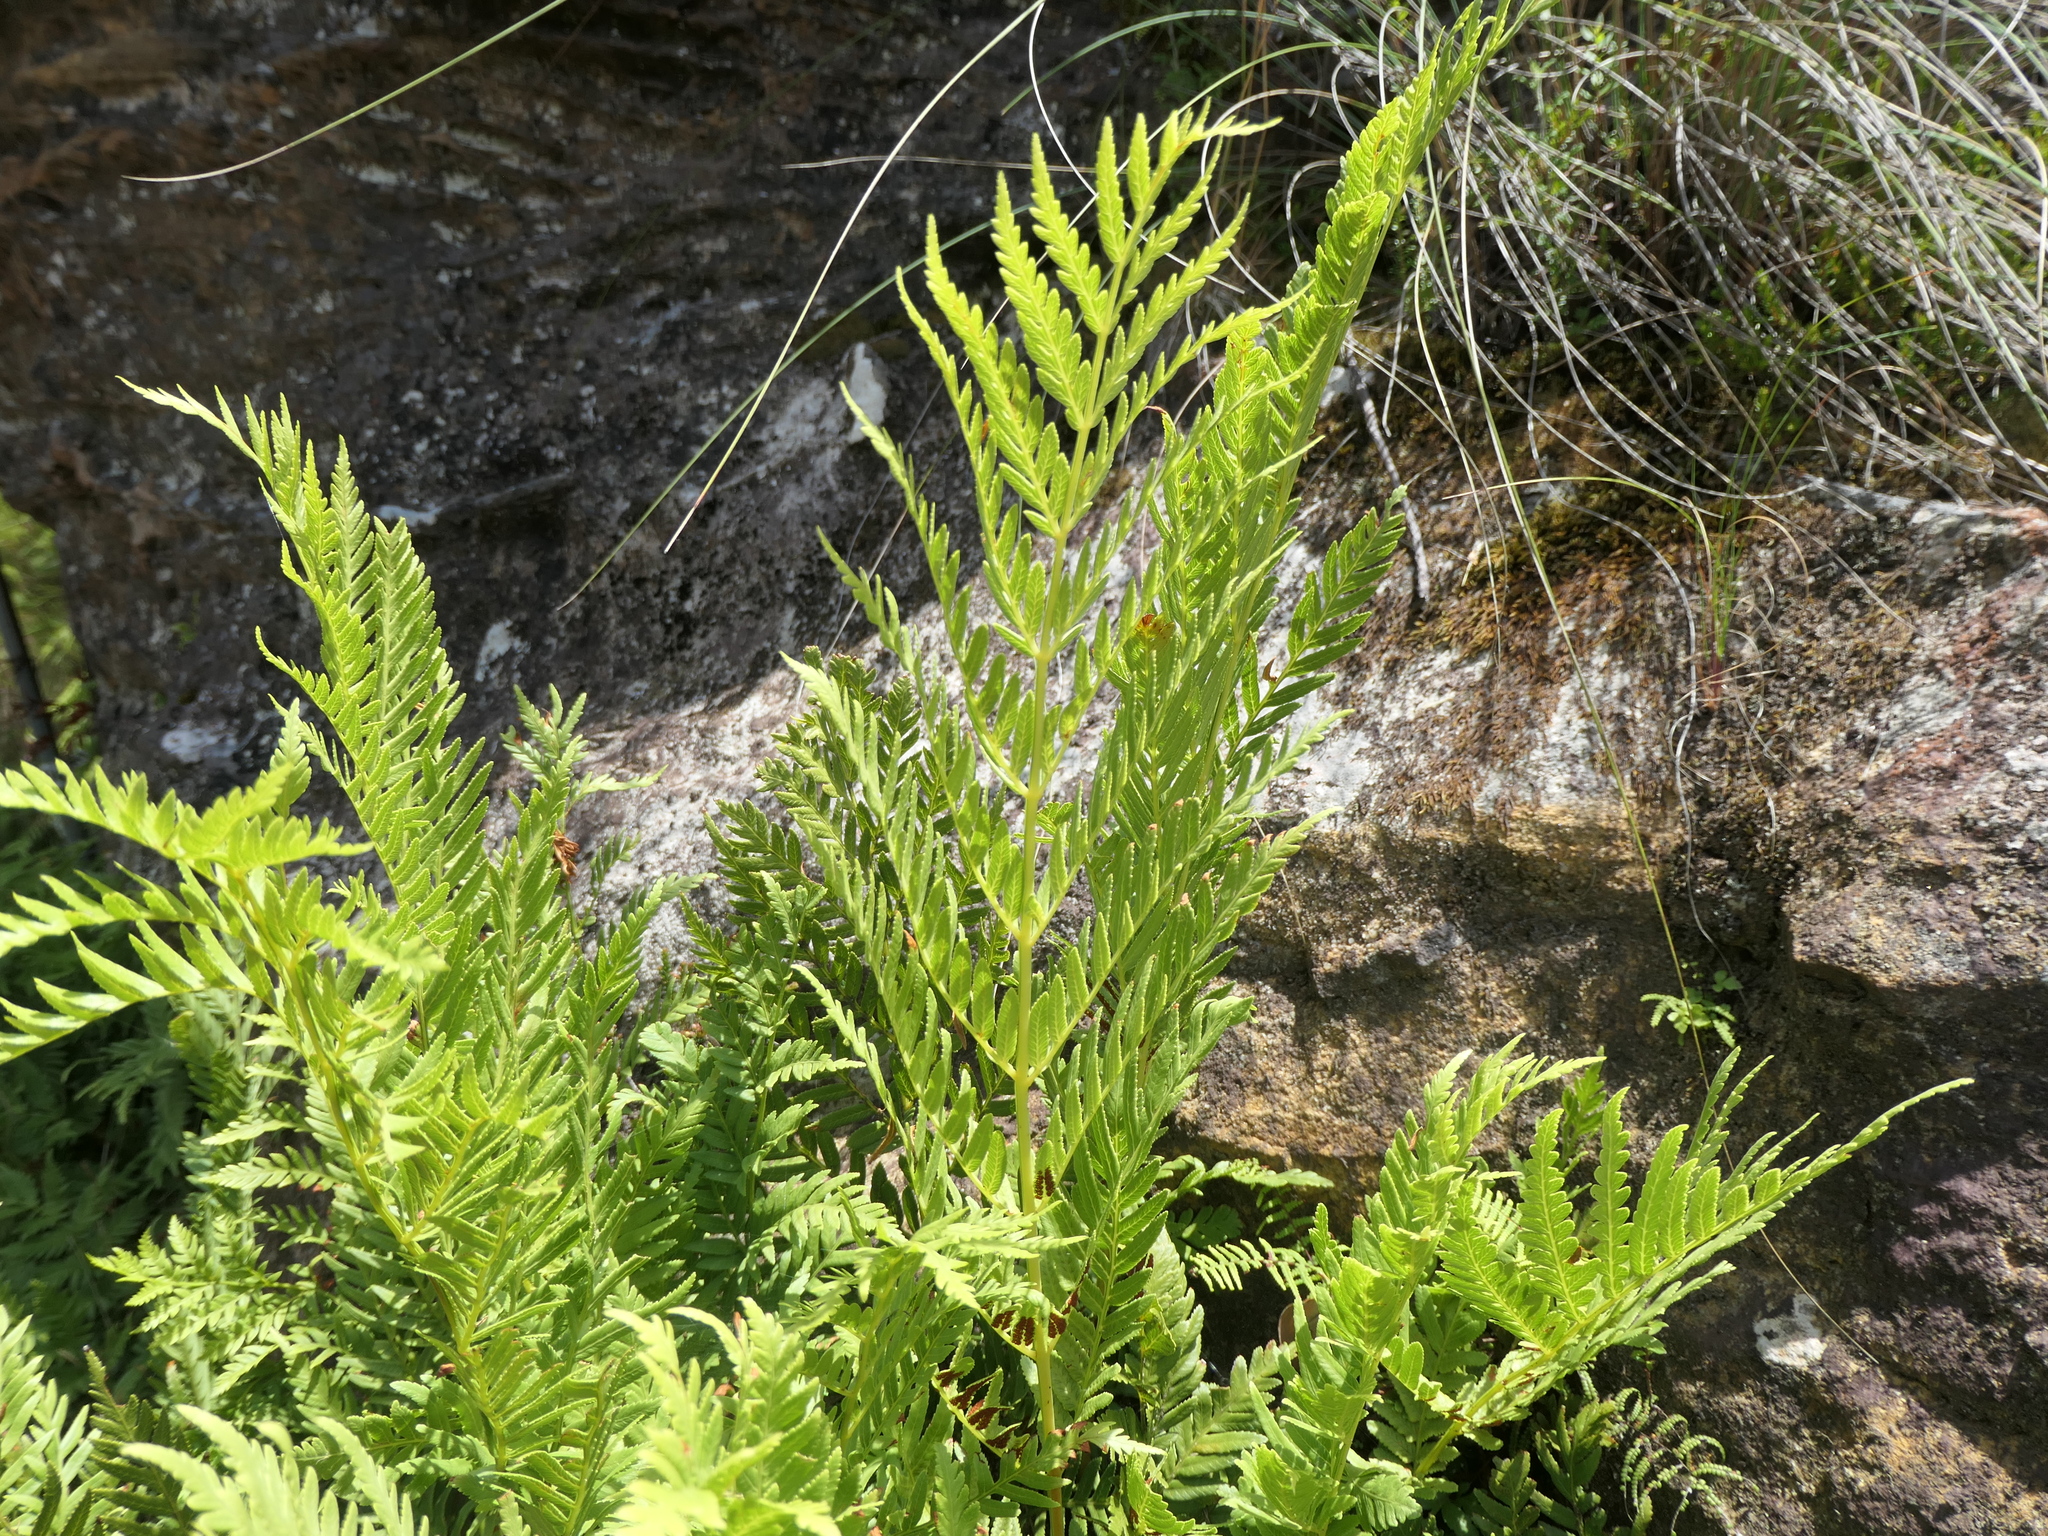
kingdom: Plantae
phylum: Tracheophyta
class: Polypodiopsida
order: Osmundales
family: Osmundaceae
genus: Todea
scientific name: Todea barbara
